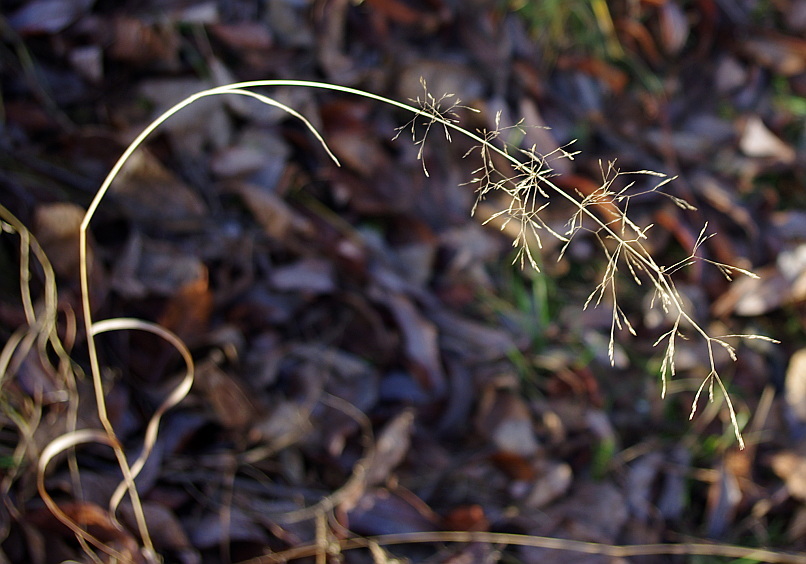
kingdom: Plantae
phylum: Tracheophyta
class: Liliopsida
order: Poales
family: Poaceae
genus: Agrostis
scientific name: Agrostis gigantea
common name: Black bent
